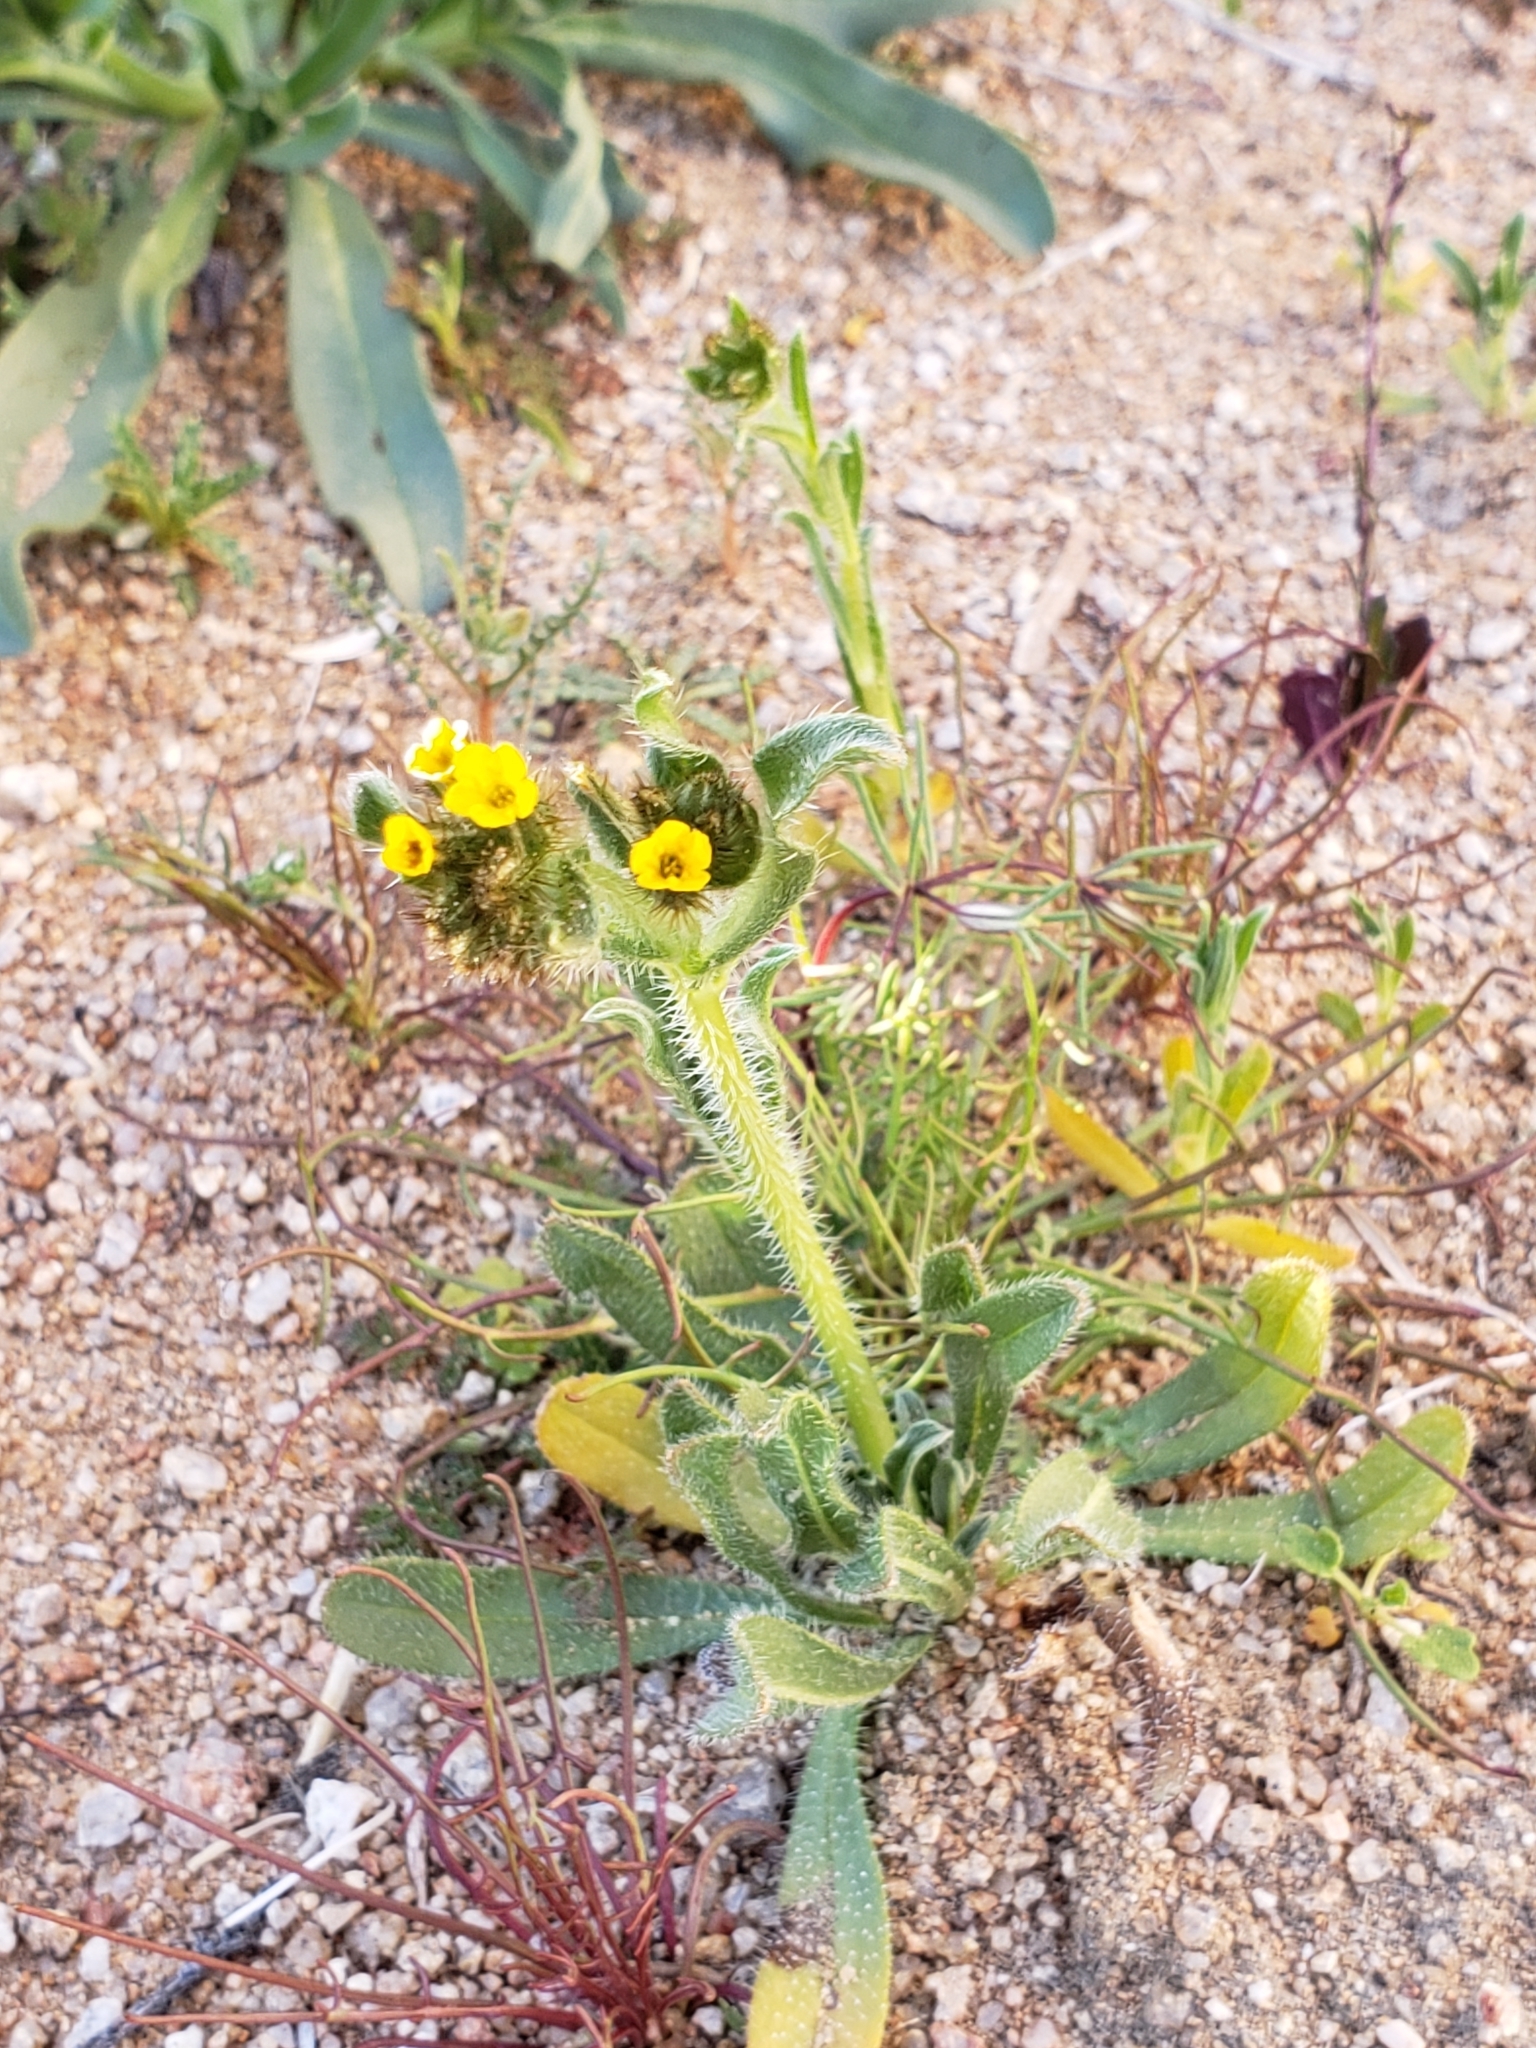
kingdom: Plantae
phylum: Tracheophyta
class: Magnoliopsida
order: Boraginales
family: Boraginaceae
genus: Amsinckia
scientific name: Amsinckia tessellata
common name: Tessellate fiddleneck
